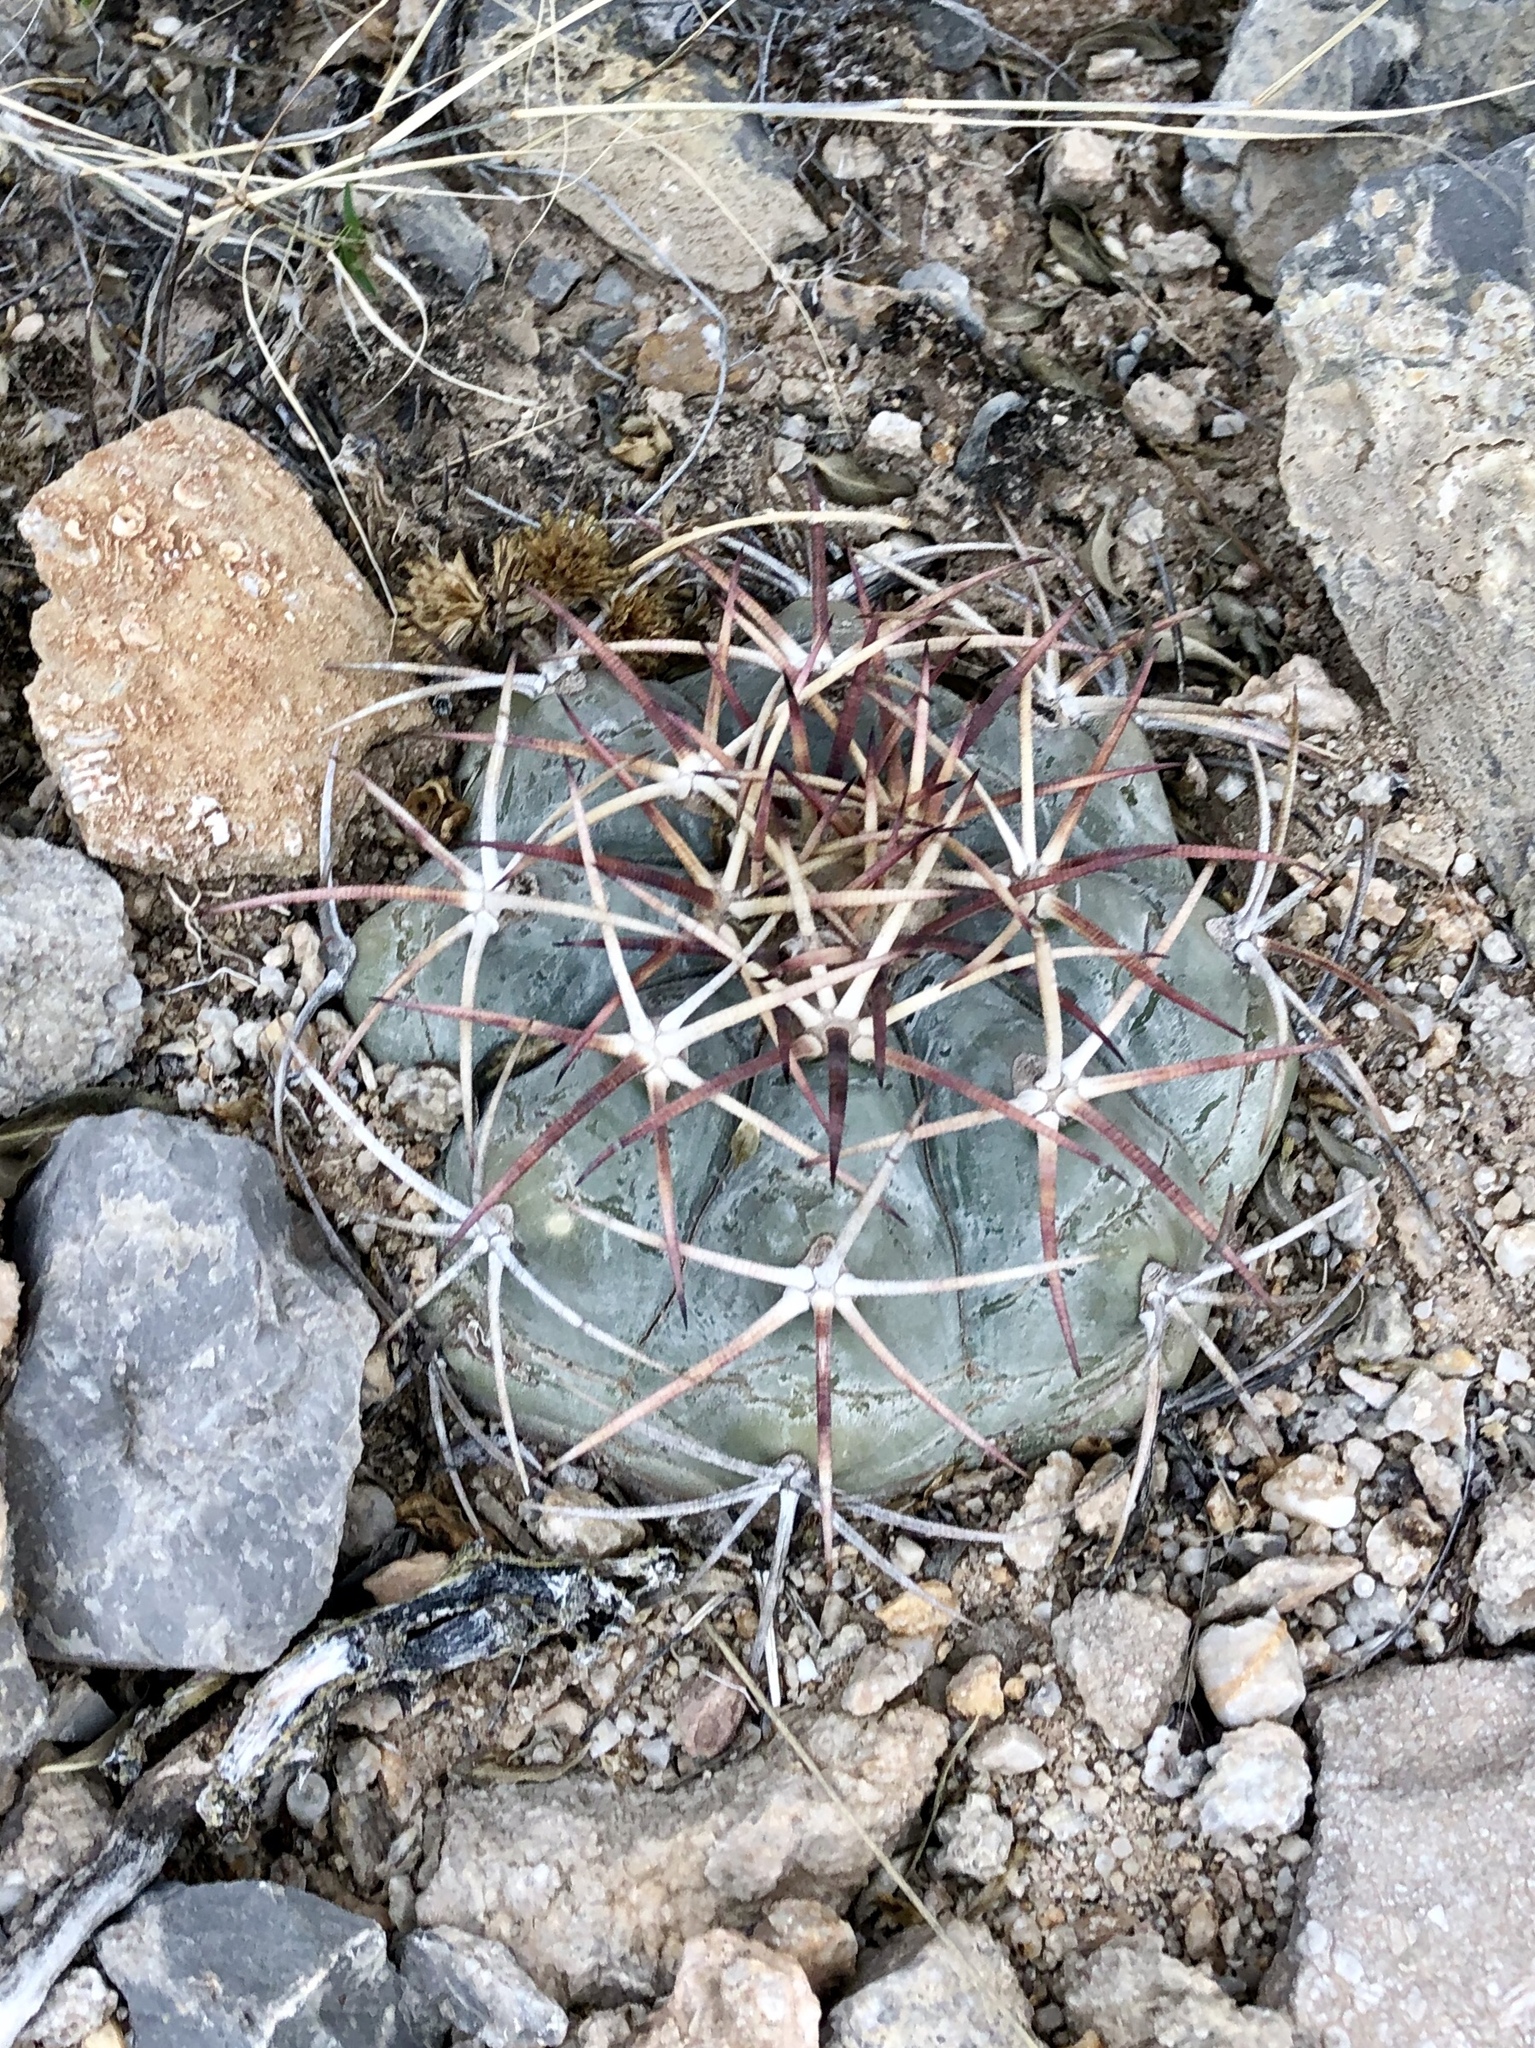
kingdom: Plantae
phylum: Tracheophyta
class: Magnoliopsida
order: Caryophyllales
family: Cactaceae
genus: Echinocactus
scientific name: Echinocactus horizonthalonius
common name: Devilshead
